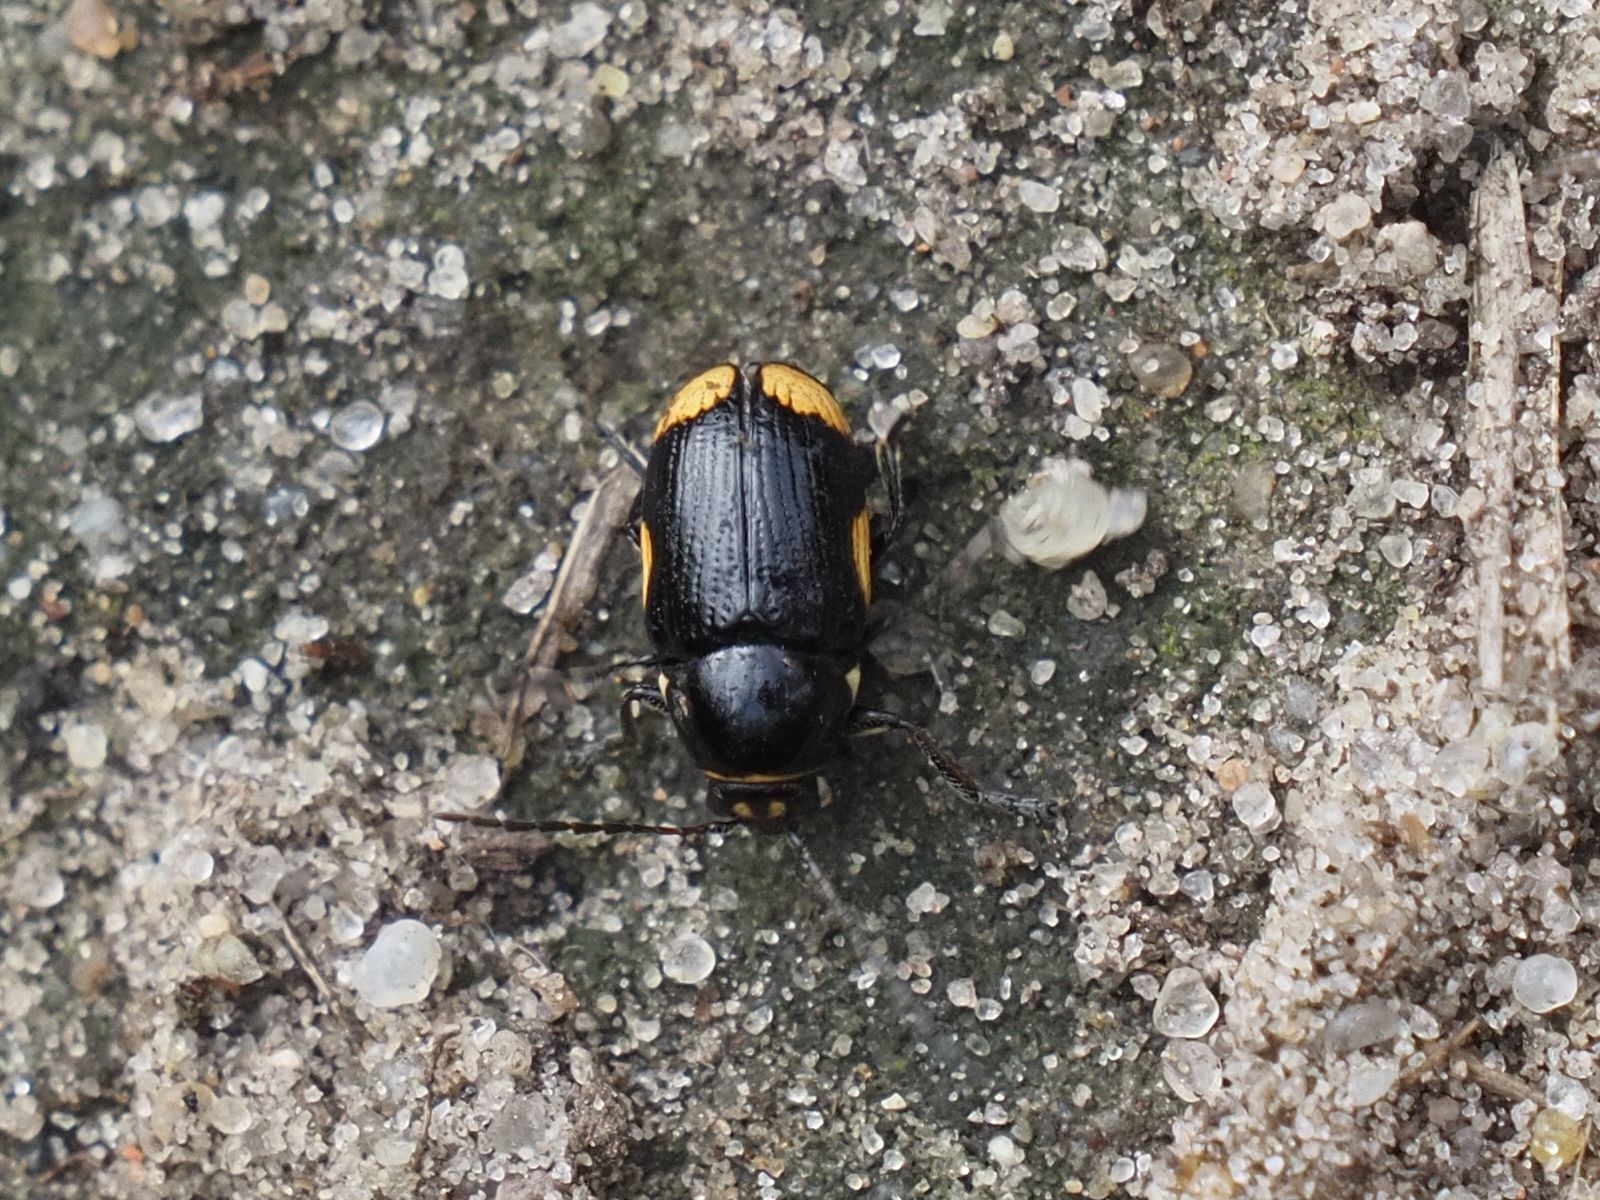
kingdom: Animalia
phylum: Arthropoda
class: Insecta
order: Coleoptera
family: Chrysomelidae
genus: Cryptocephalus
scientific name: Cryptocephalus moraei
